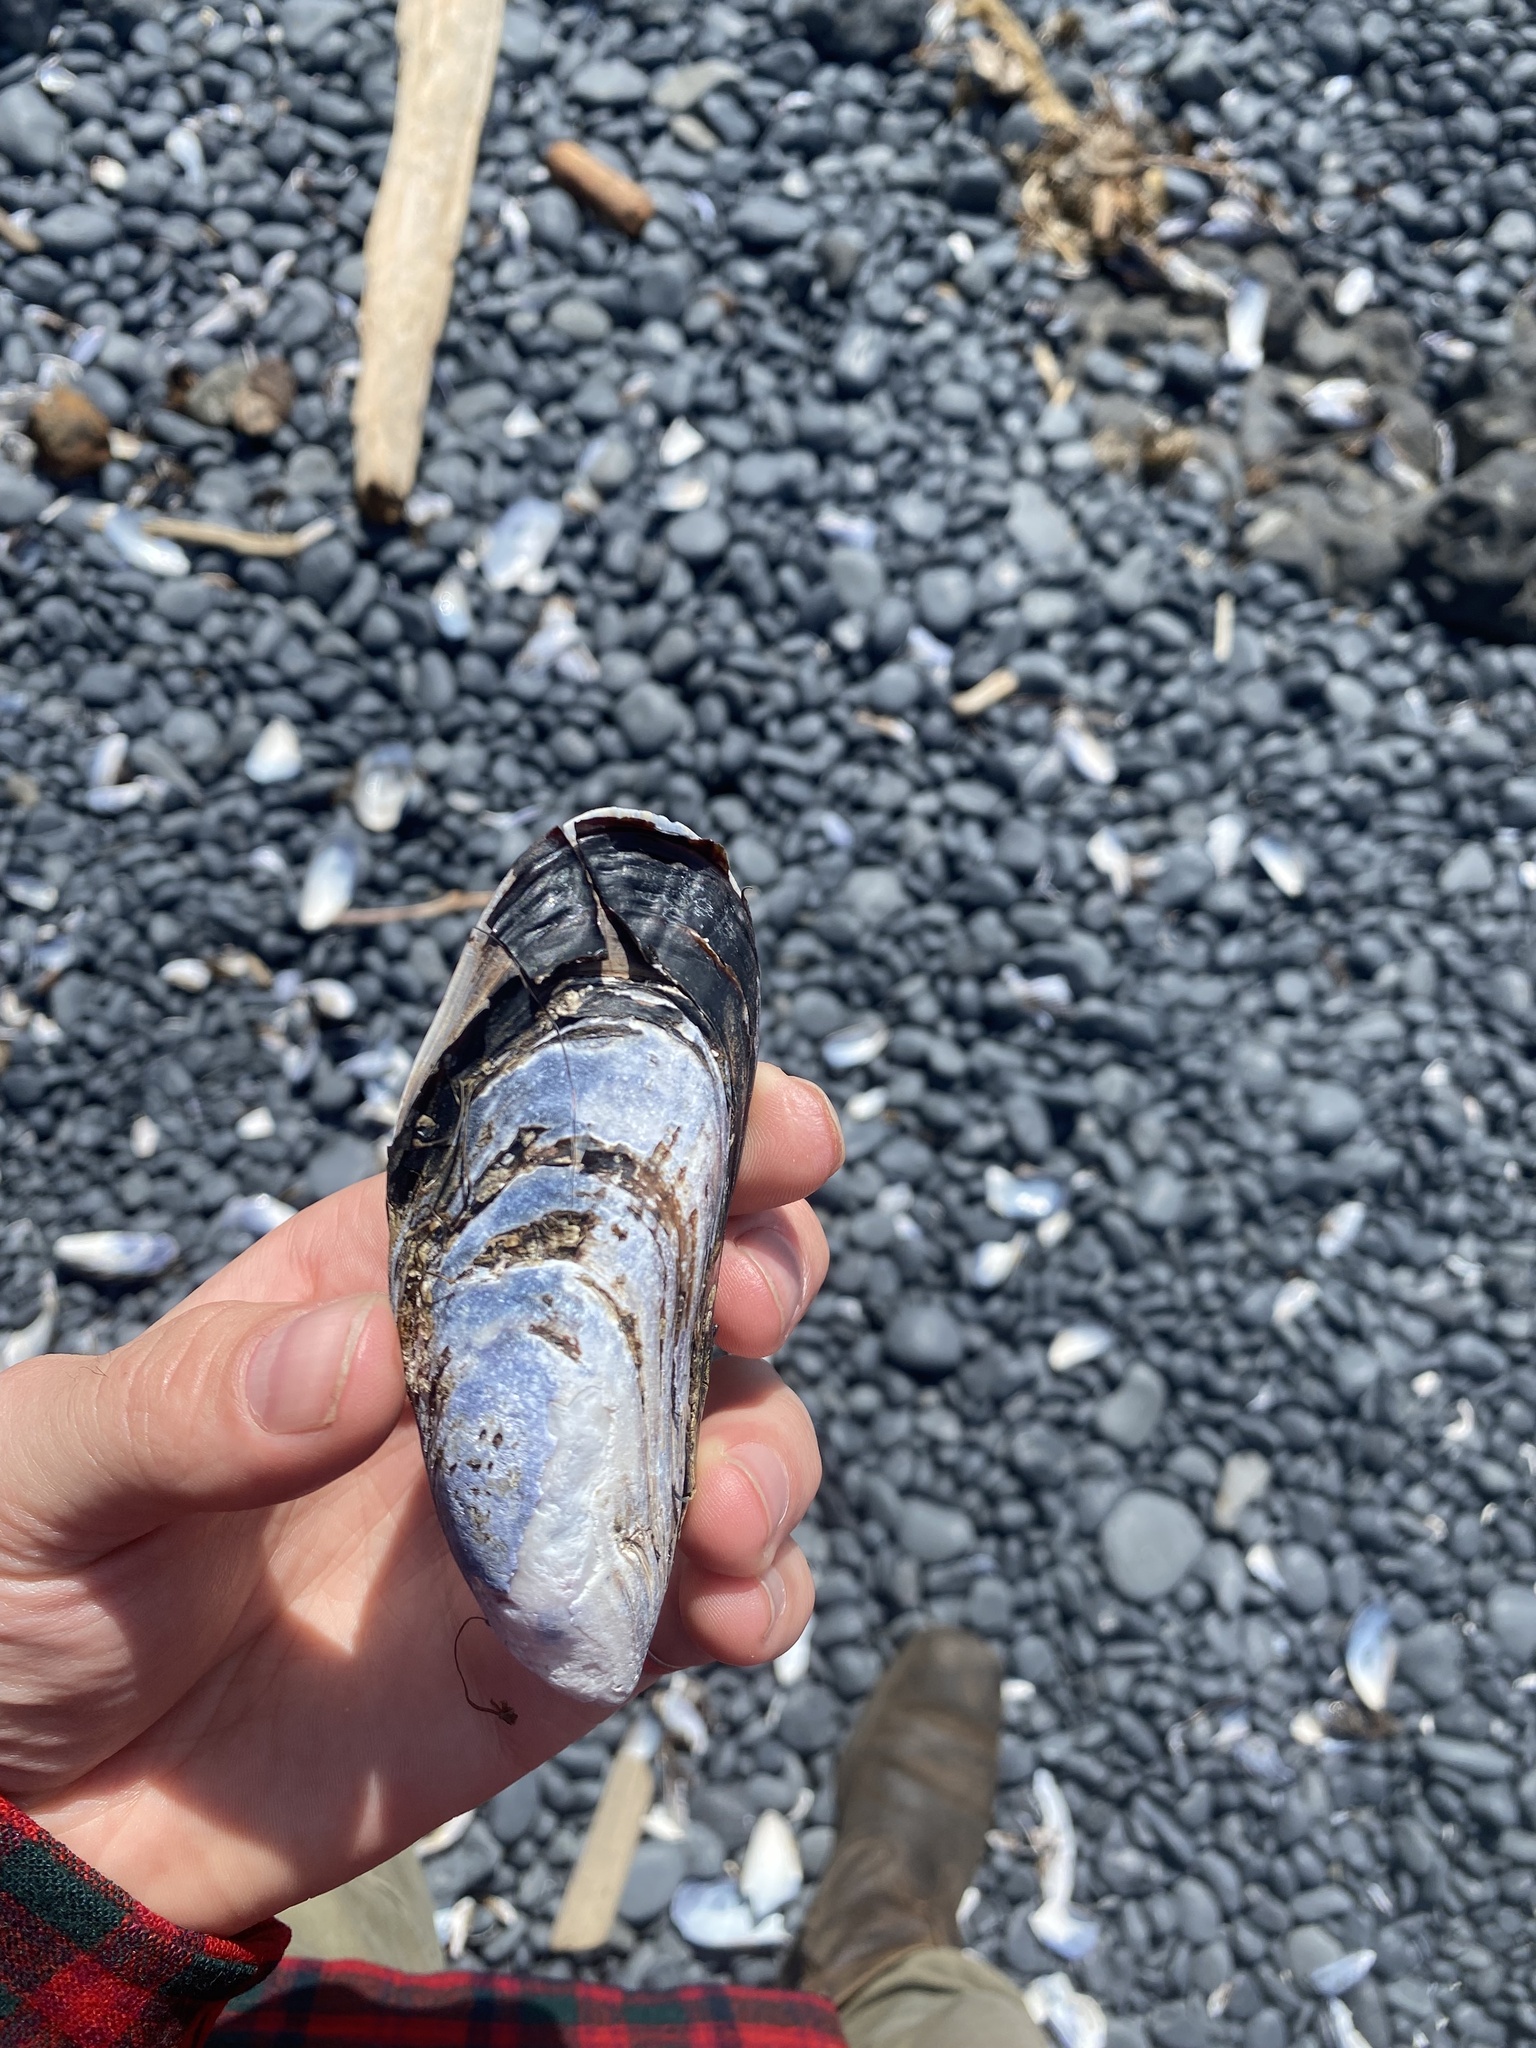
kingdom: Animalia
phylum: Mollusca
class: Bivalvia
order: Mytilida
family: Mytilidae
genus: Mytilus
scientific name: Mytilus californianus
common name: California mussel
